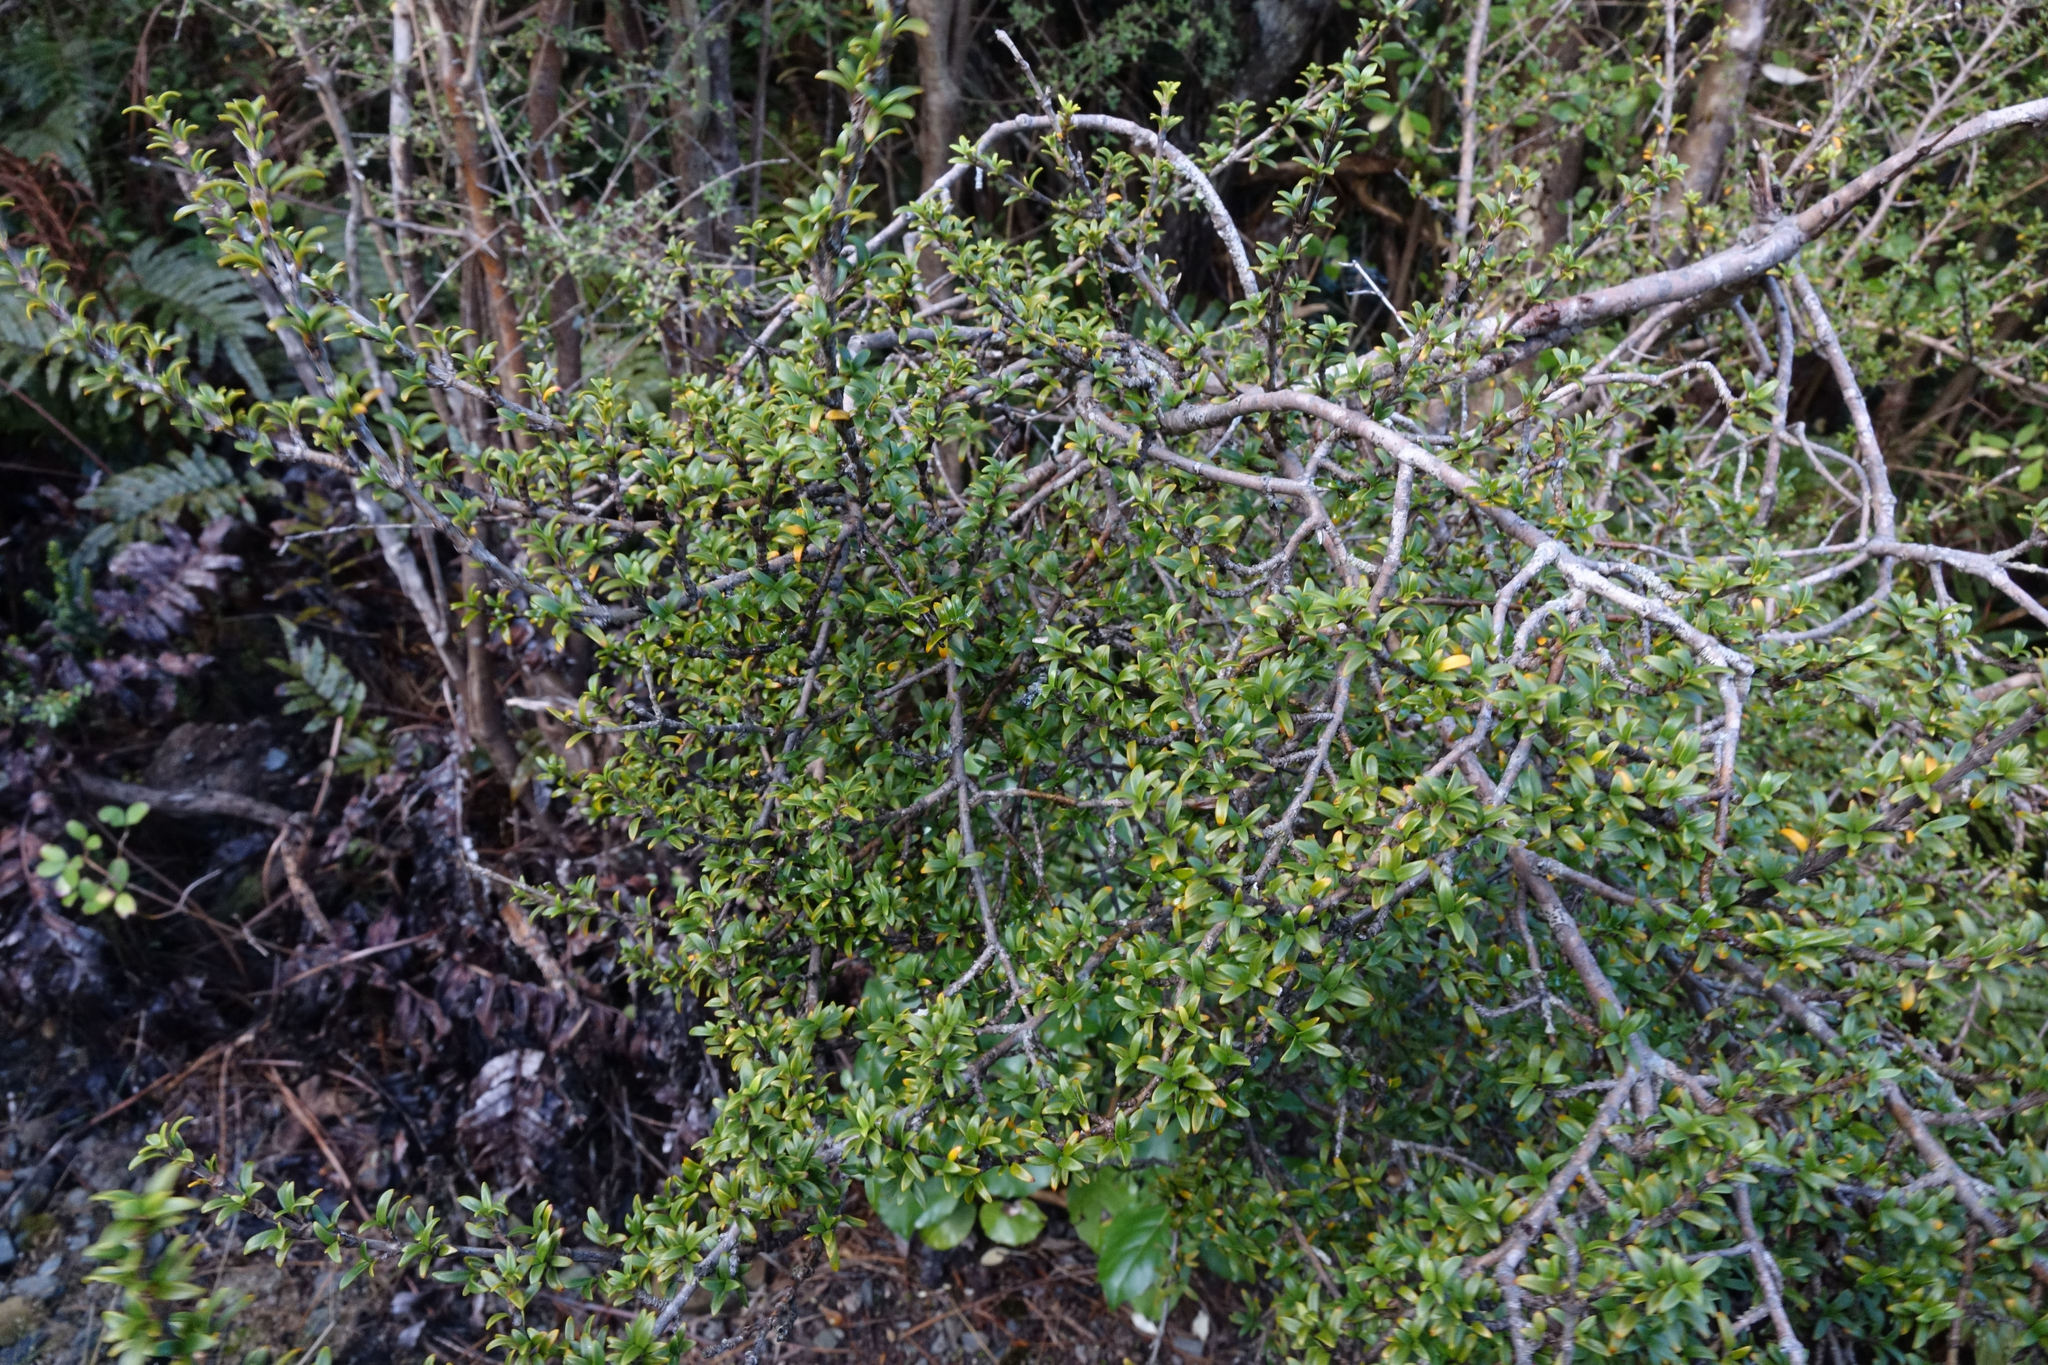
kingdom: Plantae
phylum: Tracheophyta
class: Magnoliopsida
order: Gentianales
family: Rubiaceae
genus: Coprosma
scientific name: Coprosma pseudocuneata
